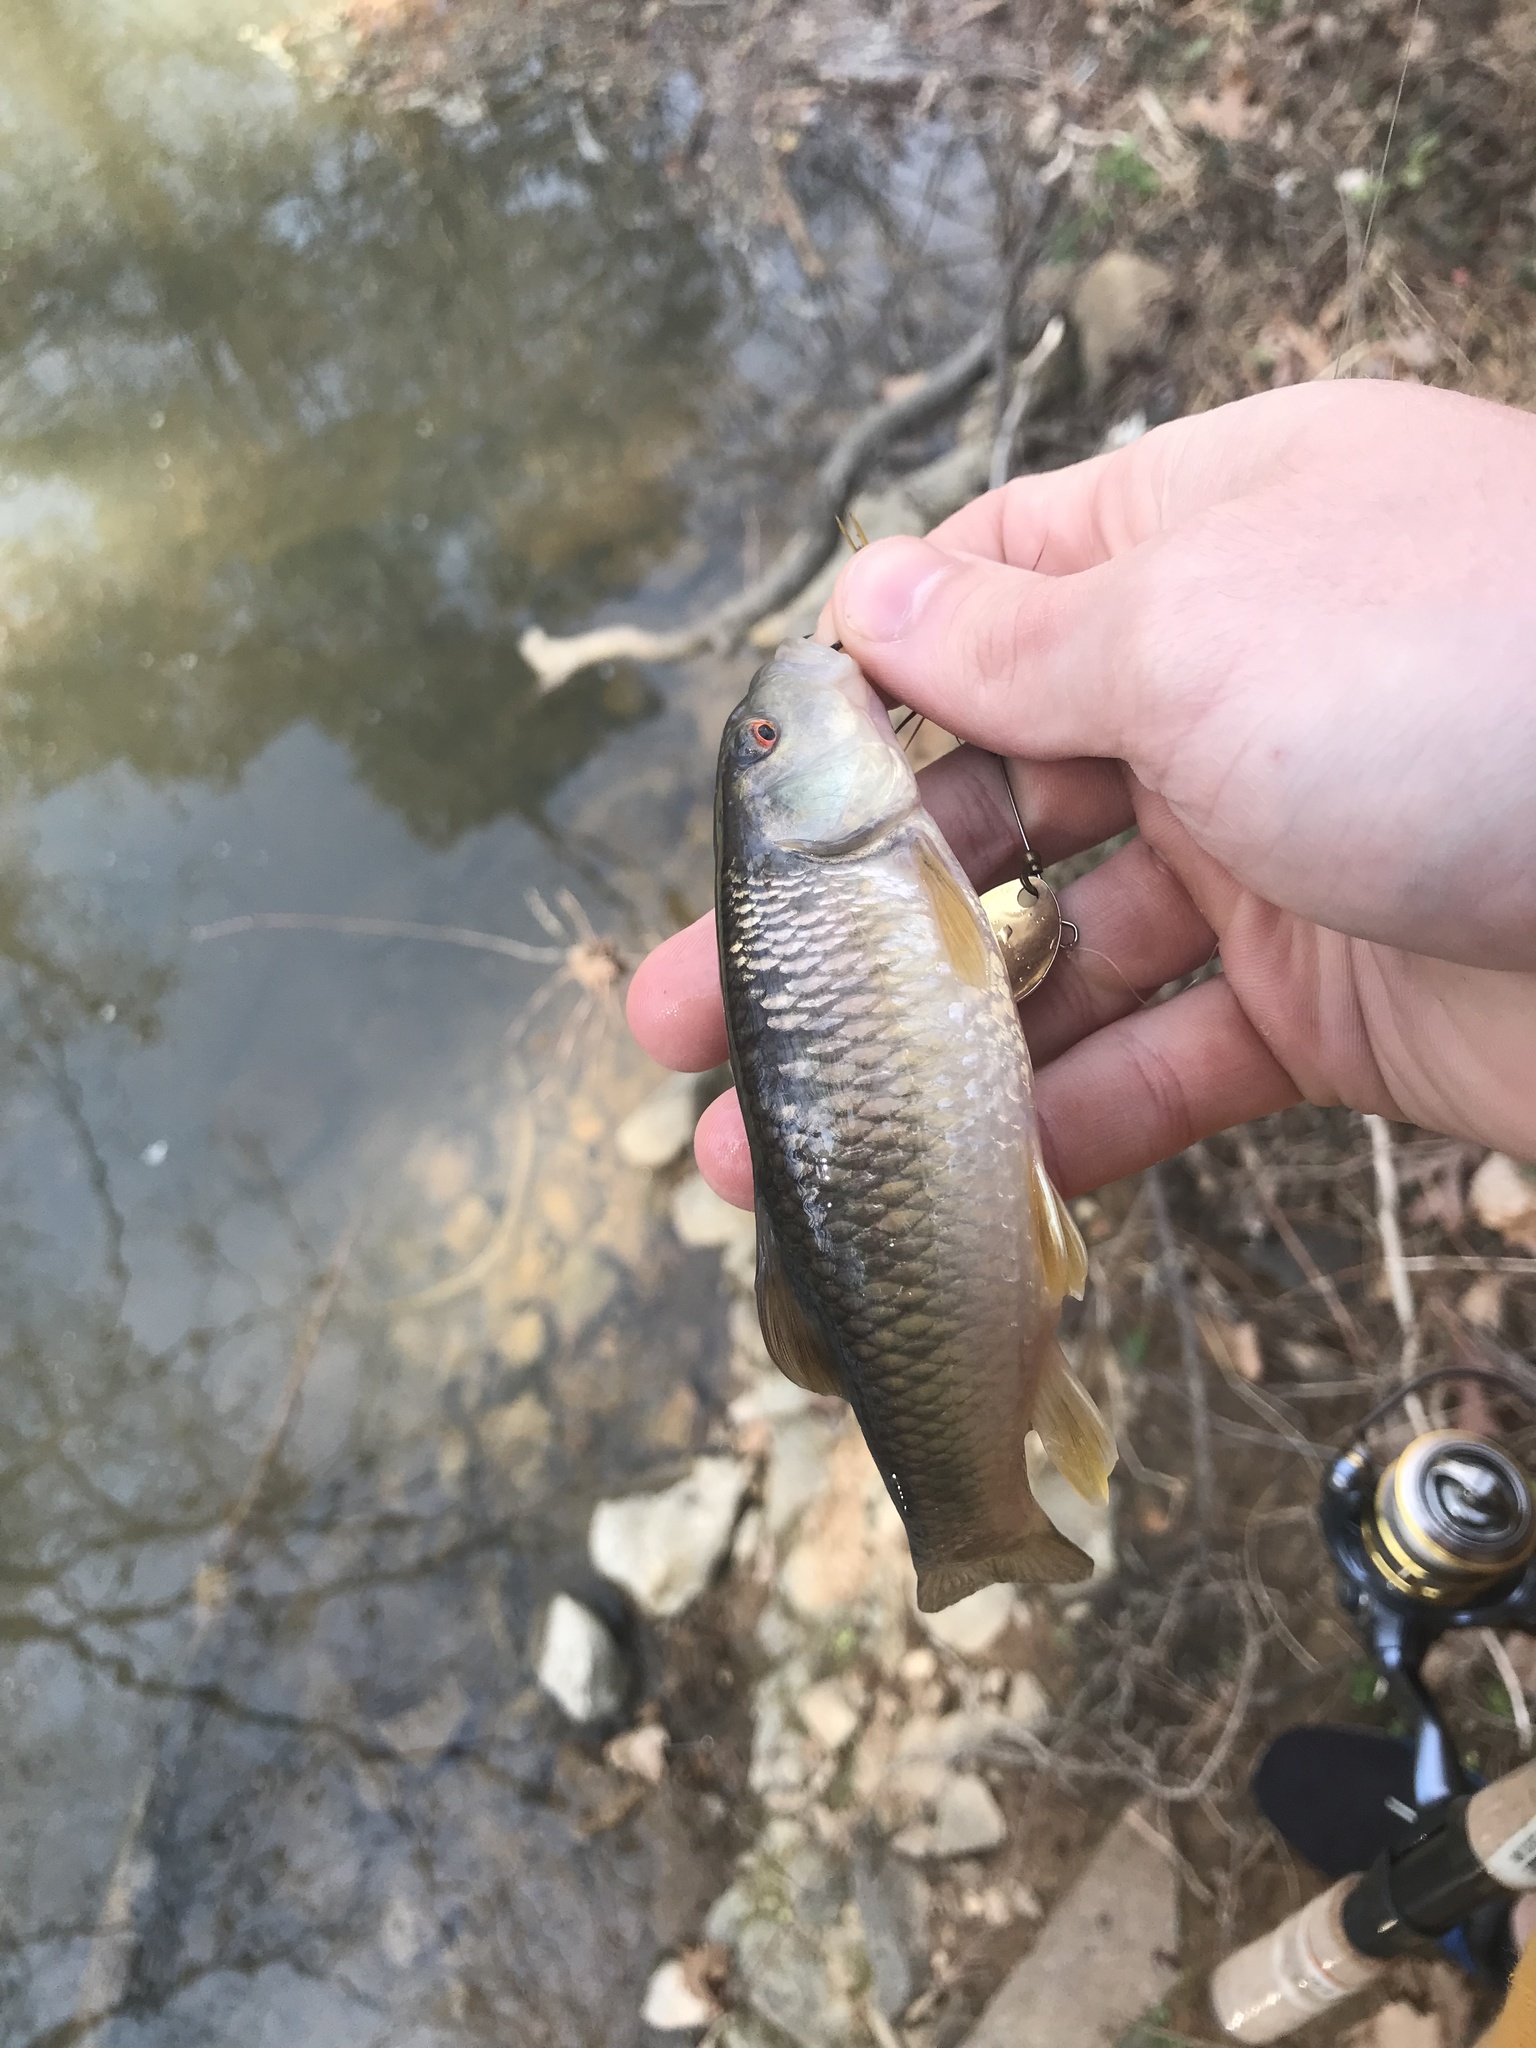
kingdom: Animalia
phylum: Chordata
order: Cypriniformes
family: Cyprinidae
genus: Nocomis
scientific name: Nocomis leptocephalus
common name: Bluehead chub
